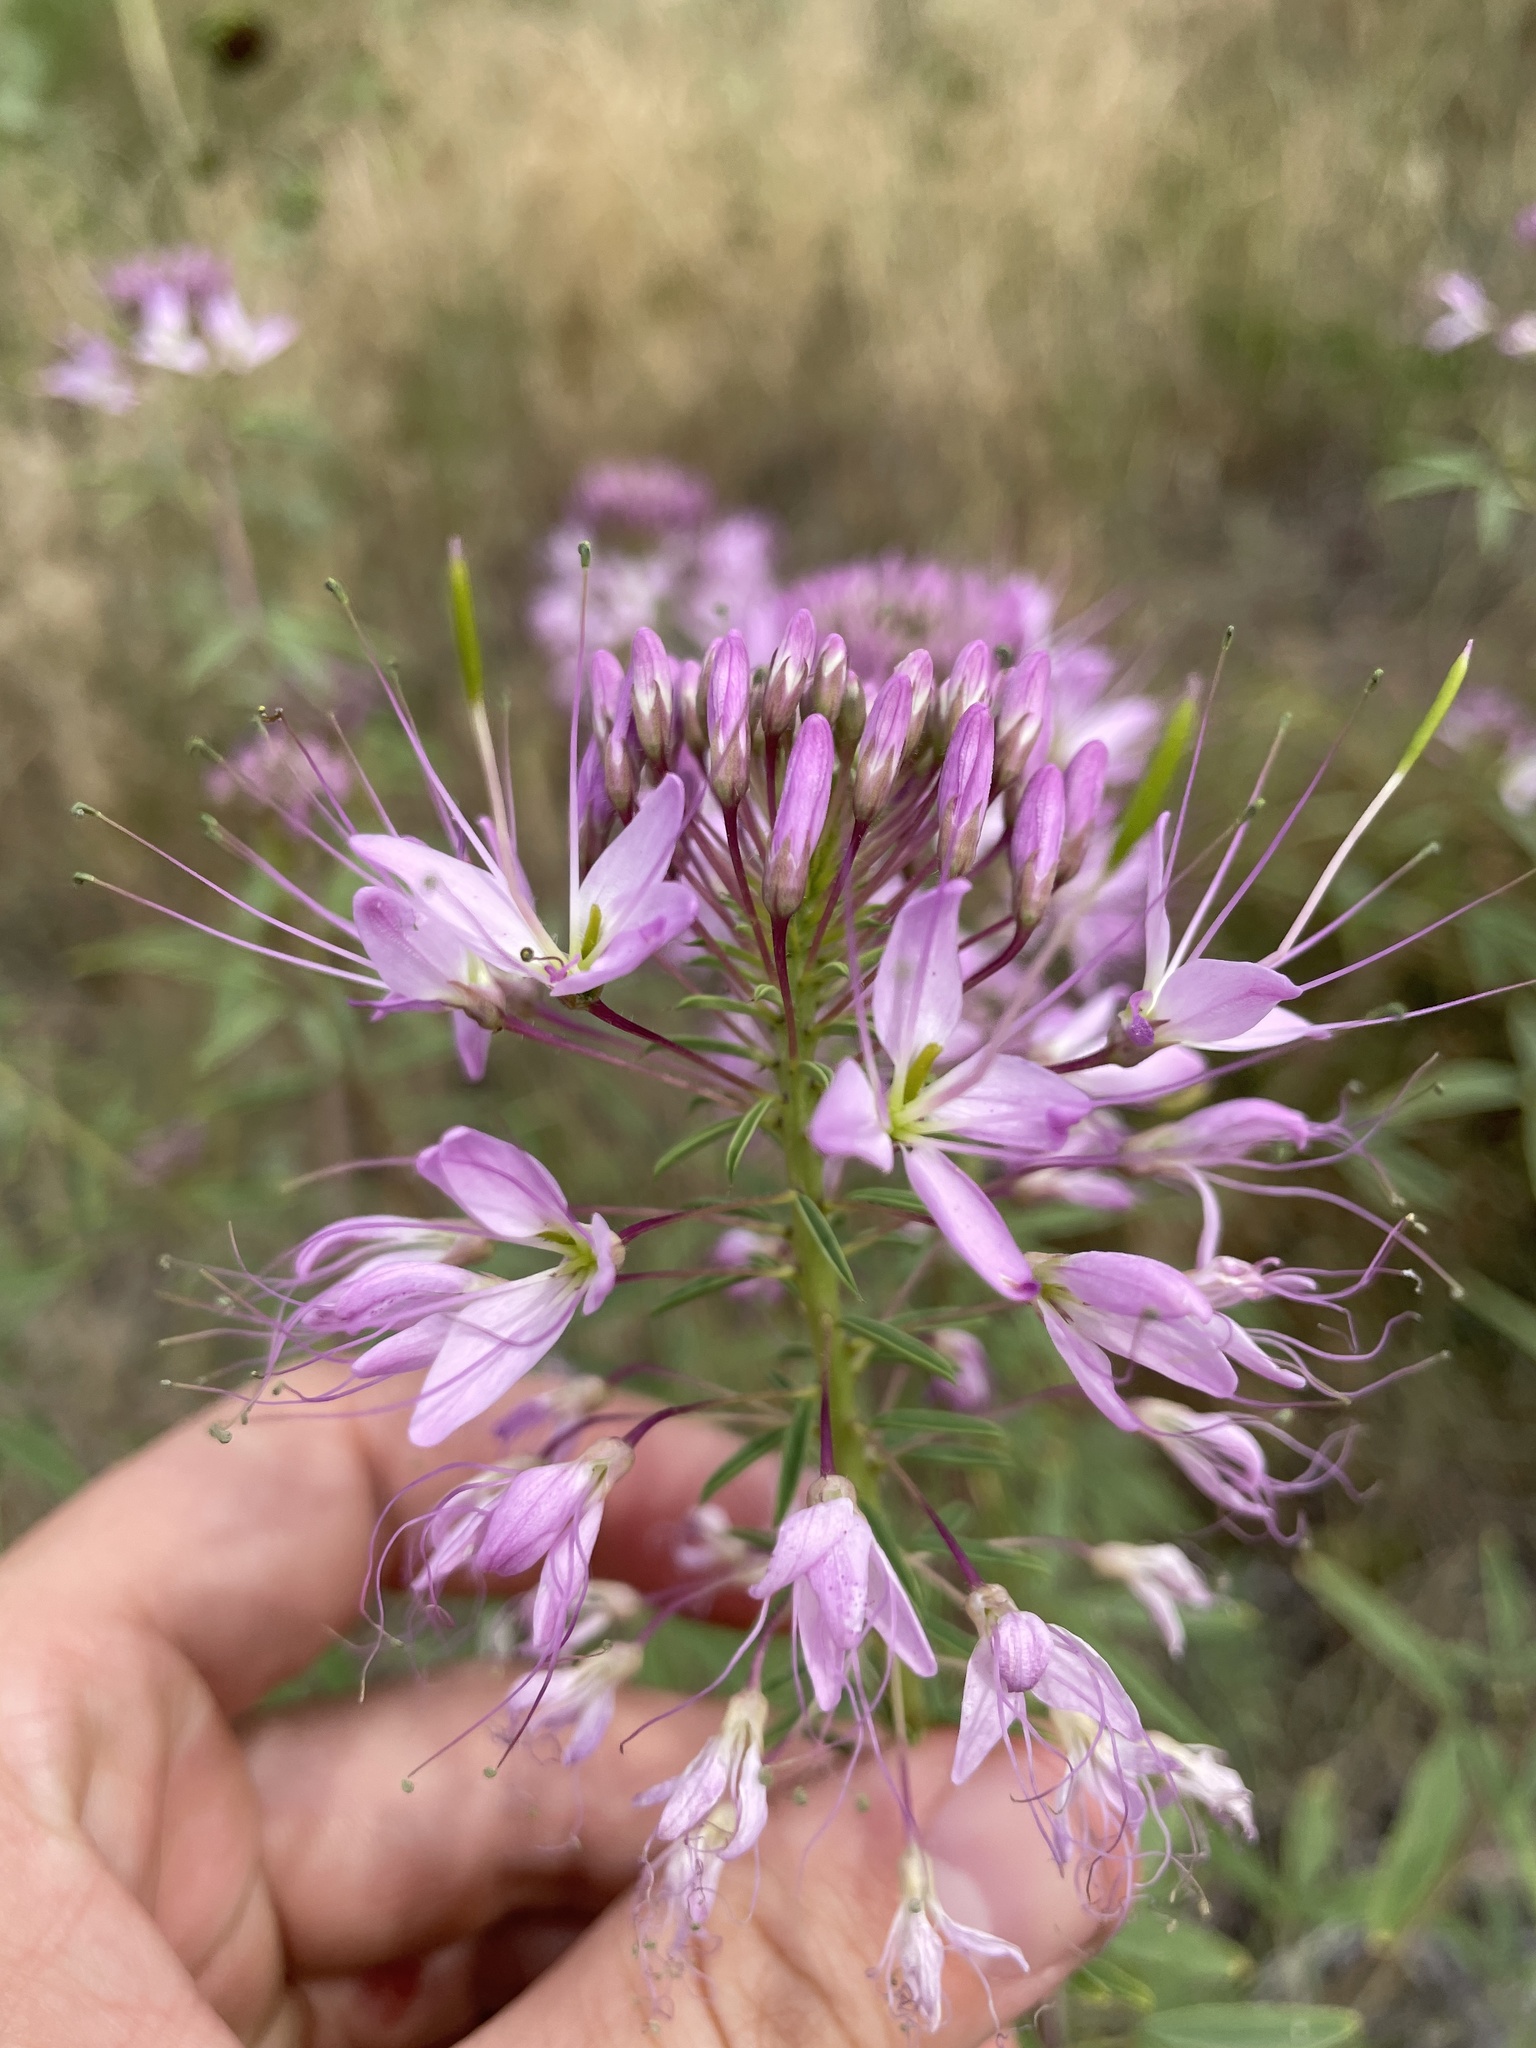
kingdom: Plantae
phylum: Tracheophyta
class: Magnoliopsida
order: Brassicales
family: Cleomaceae
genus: Cleomella
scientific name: Cleomella serrulata
